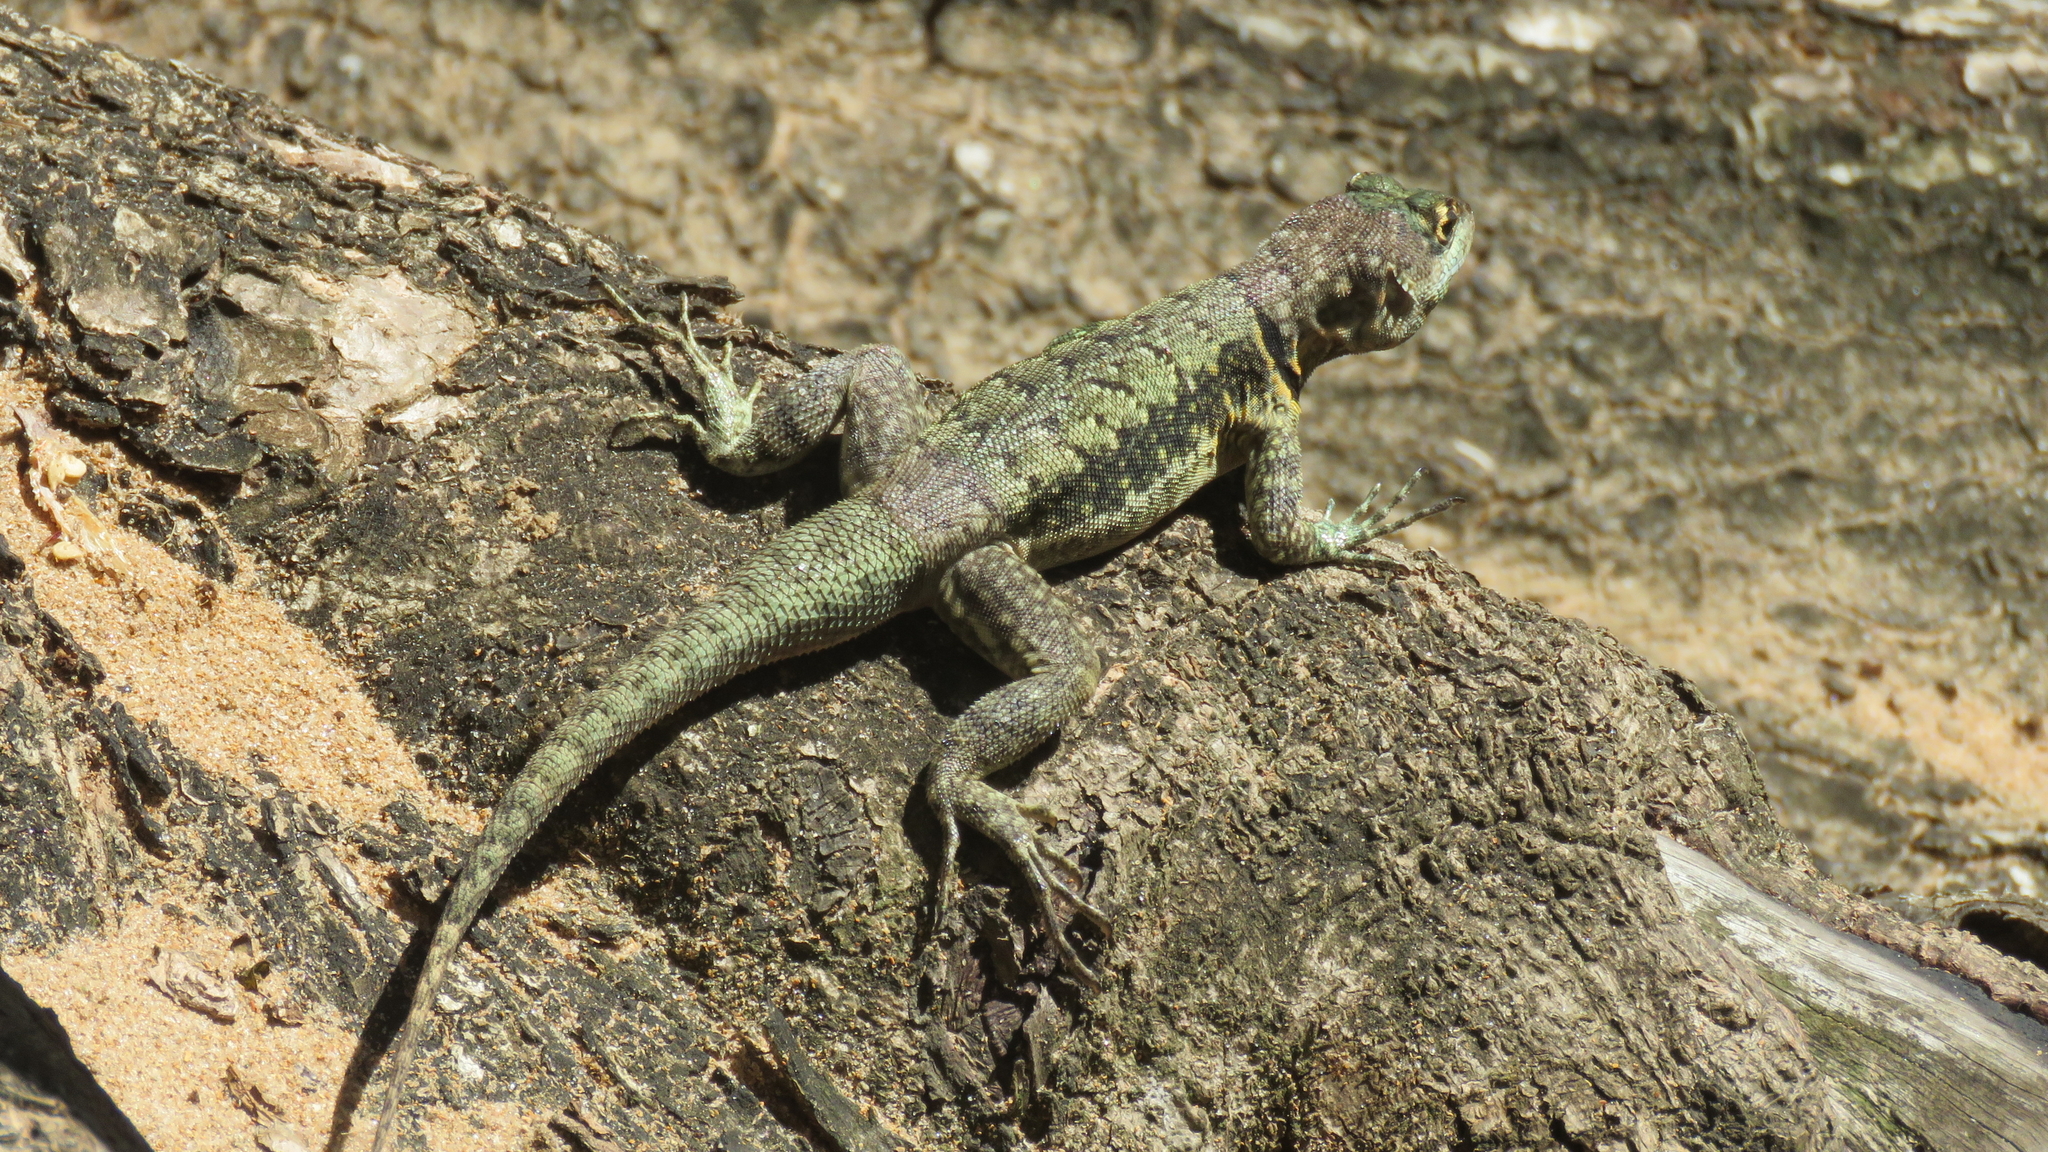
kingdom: Animalia
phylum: Chordata
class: Squamata
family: Tropiduridae
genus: Tropidurus
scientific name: Tropidurus torquatus
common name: Amazon lava lizard
